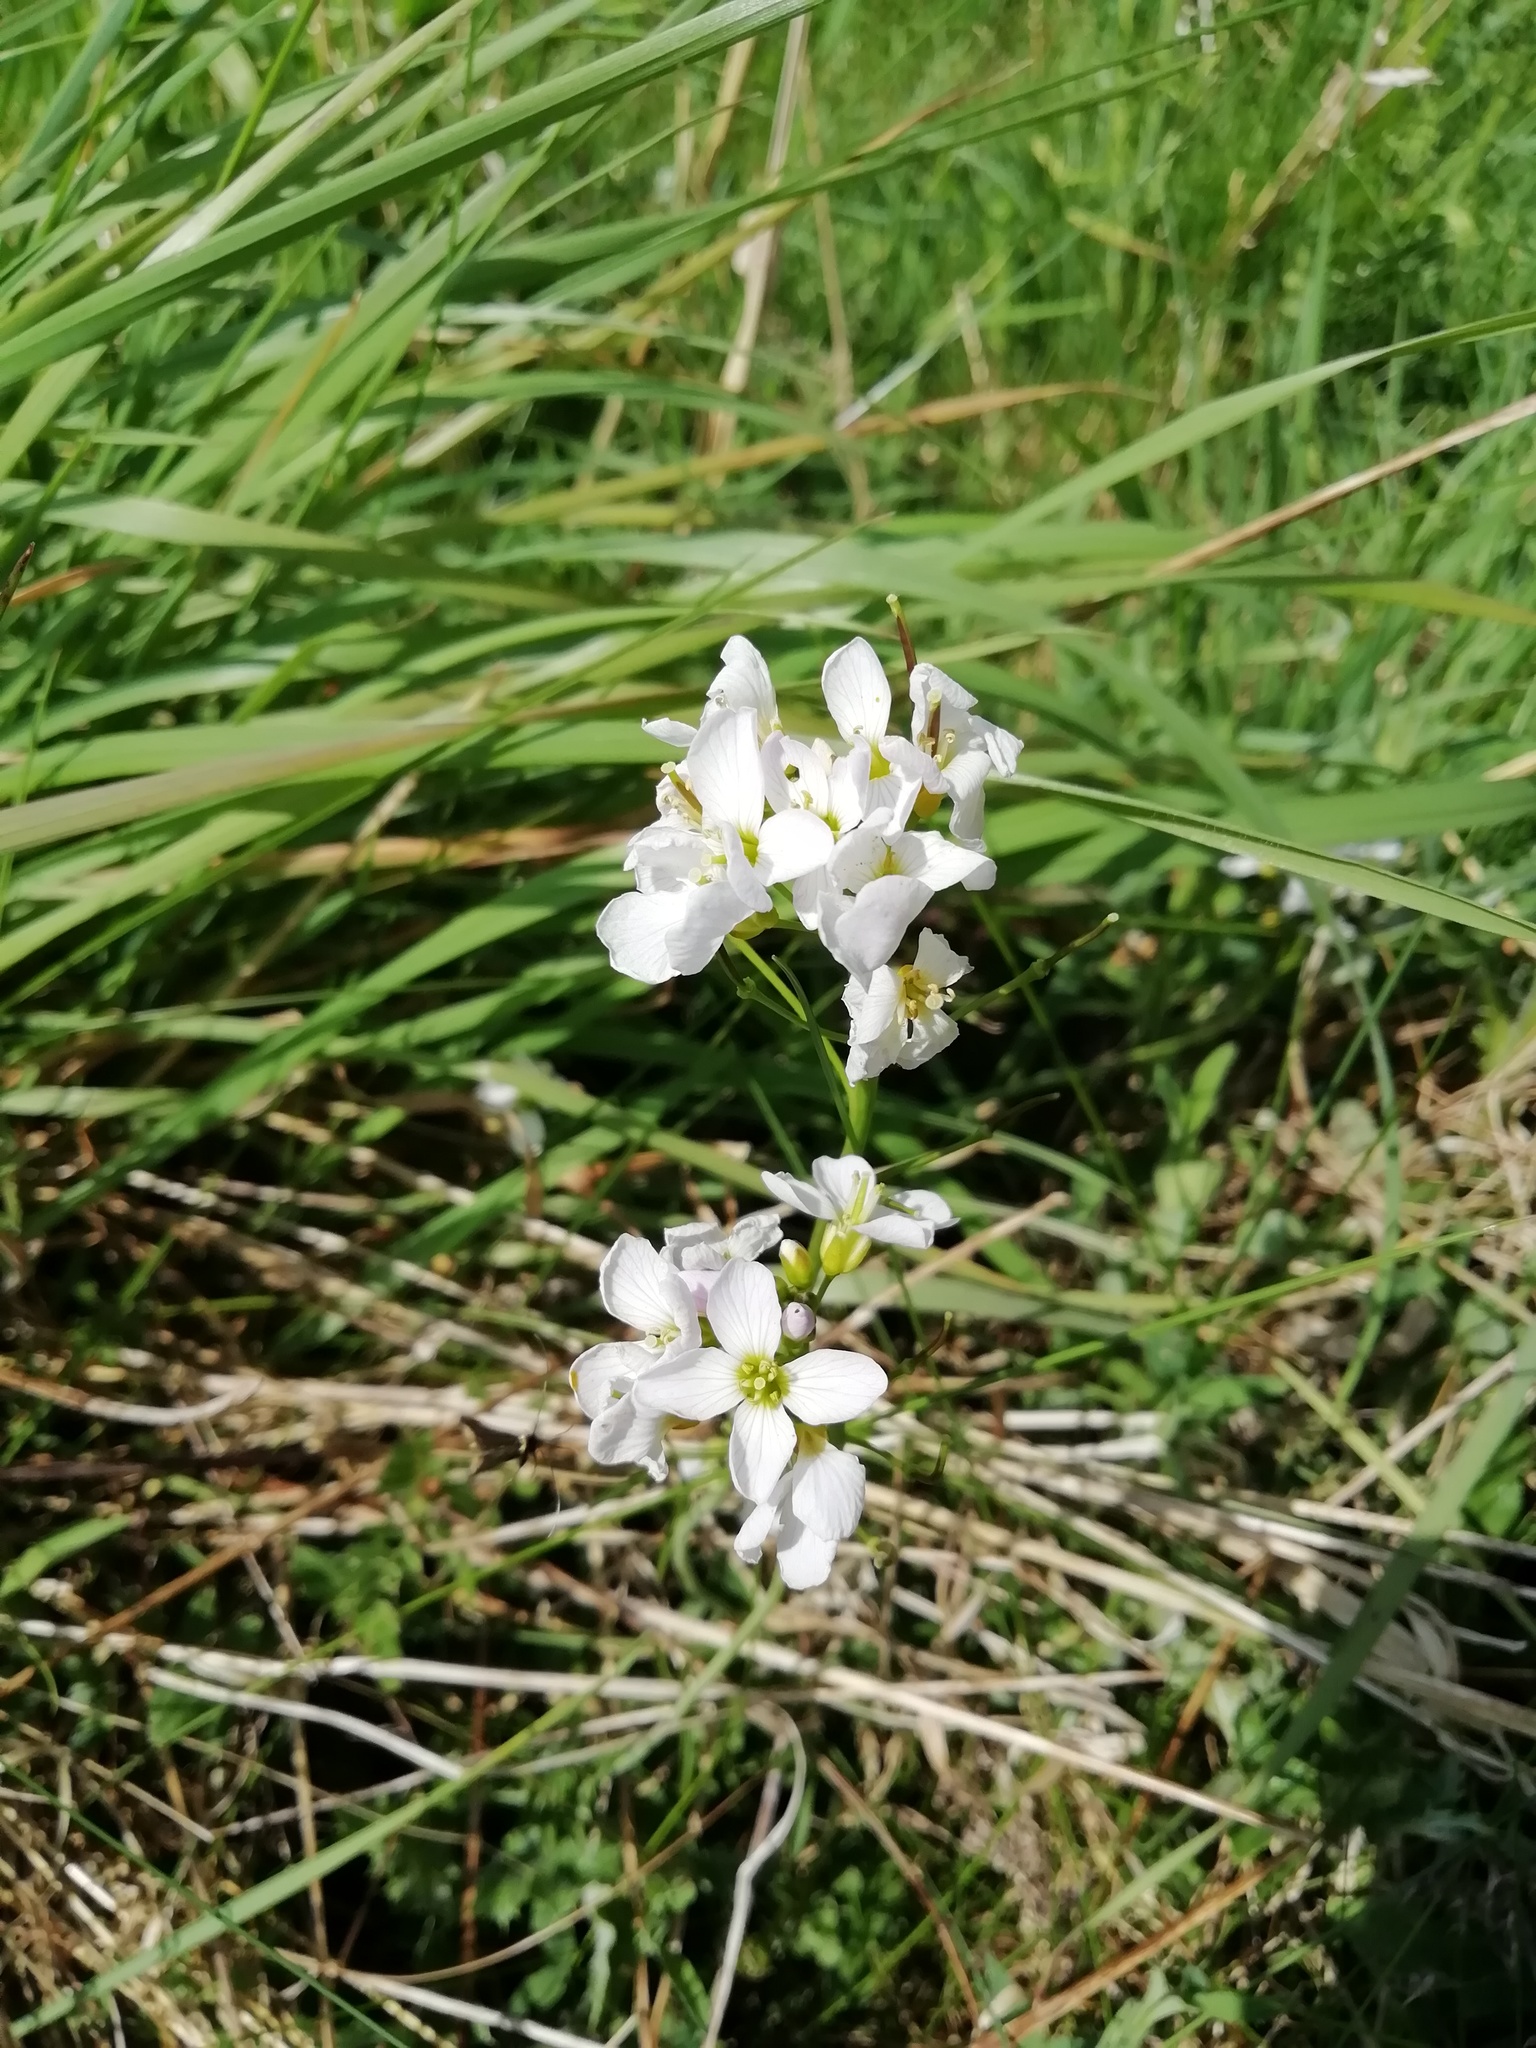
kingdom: Plantae
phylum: Tracheophyta
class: Magnoliopsida
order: Brassicales
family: Brassicaceae
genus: Cardamine
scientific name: Cardamine pratensis
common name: Cuckoo flower
